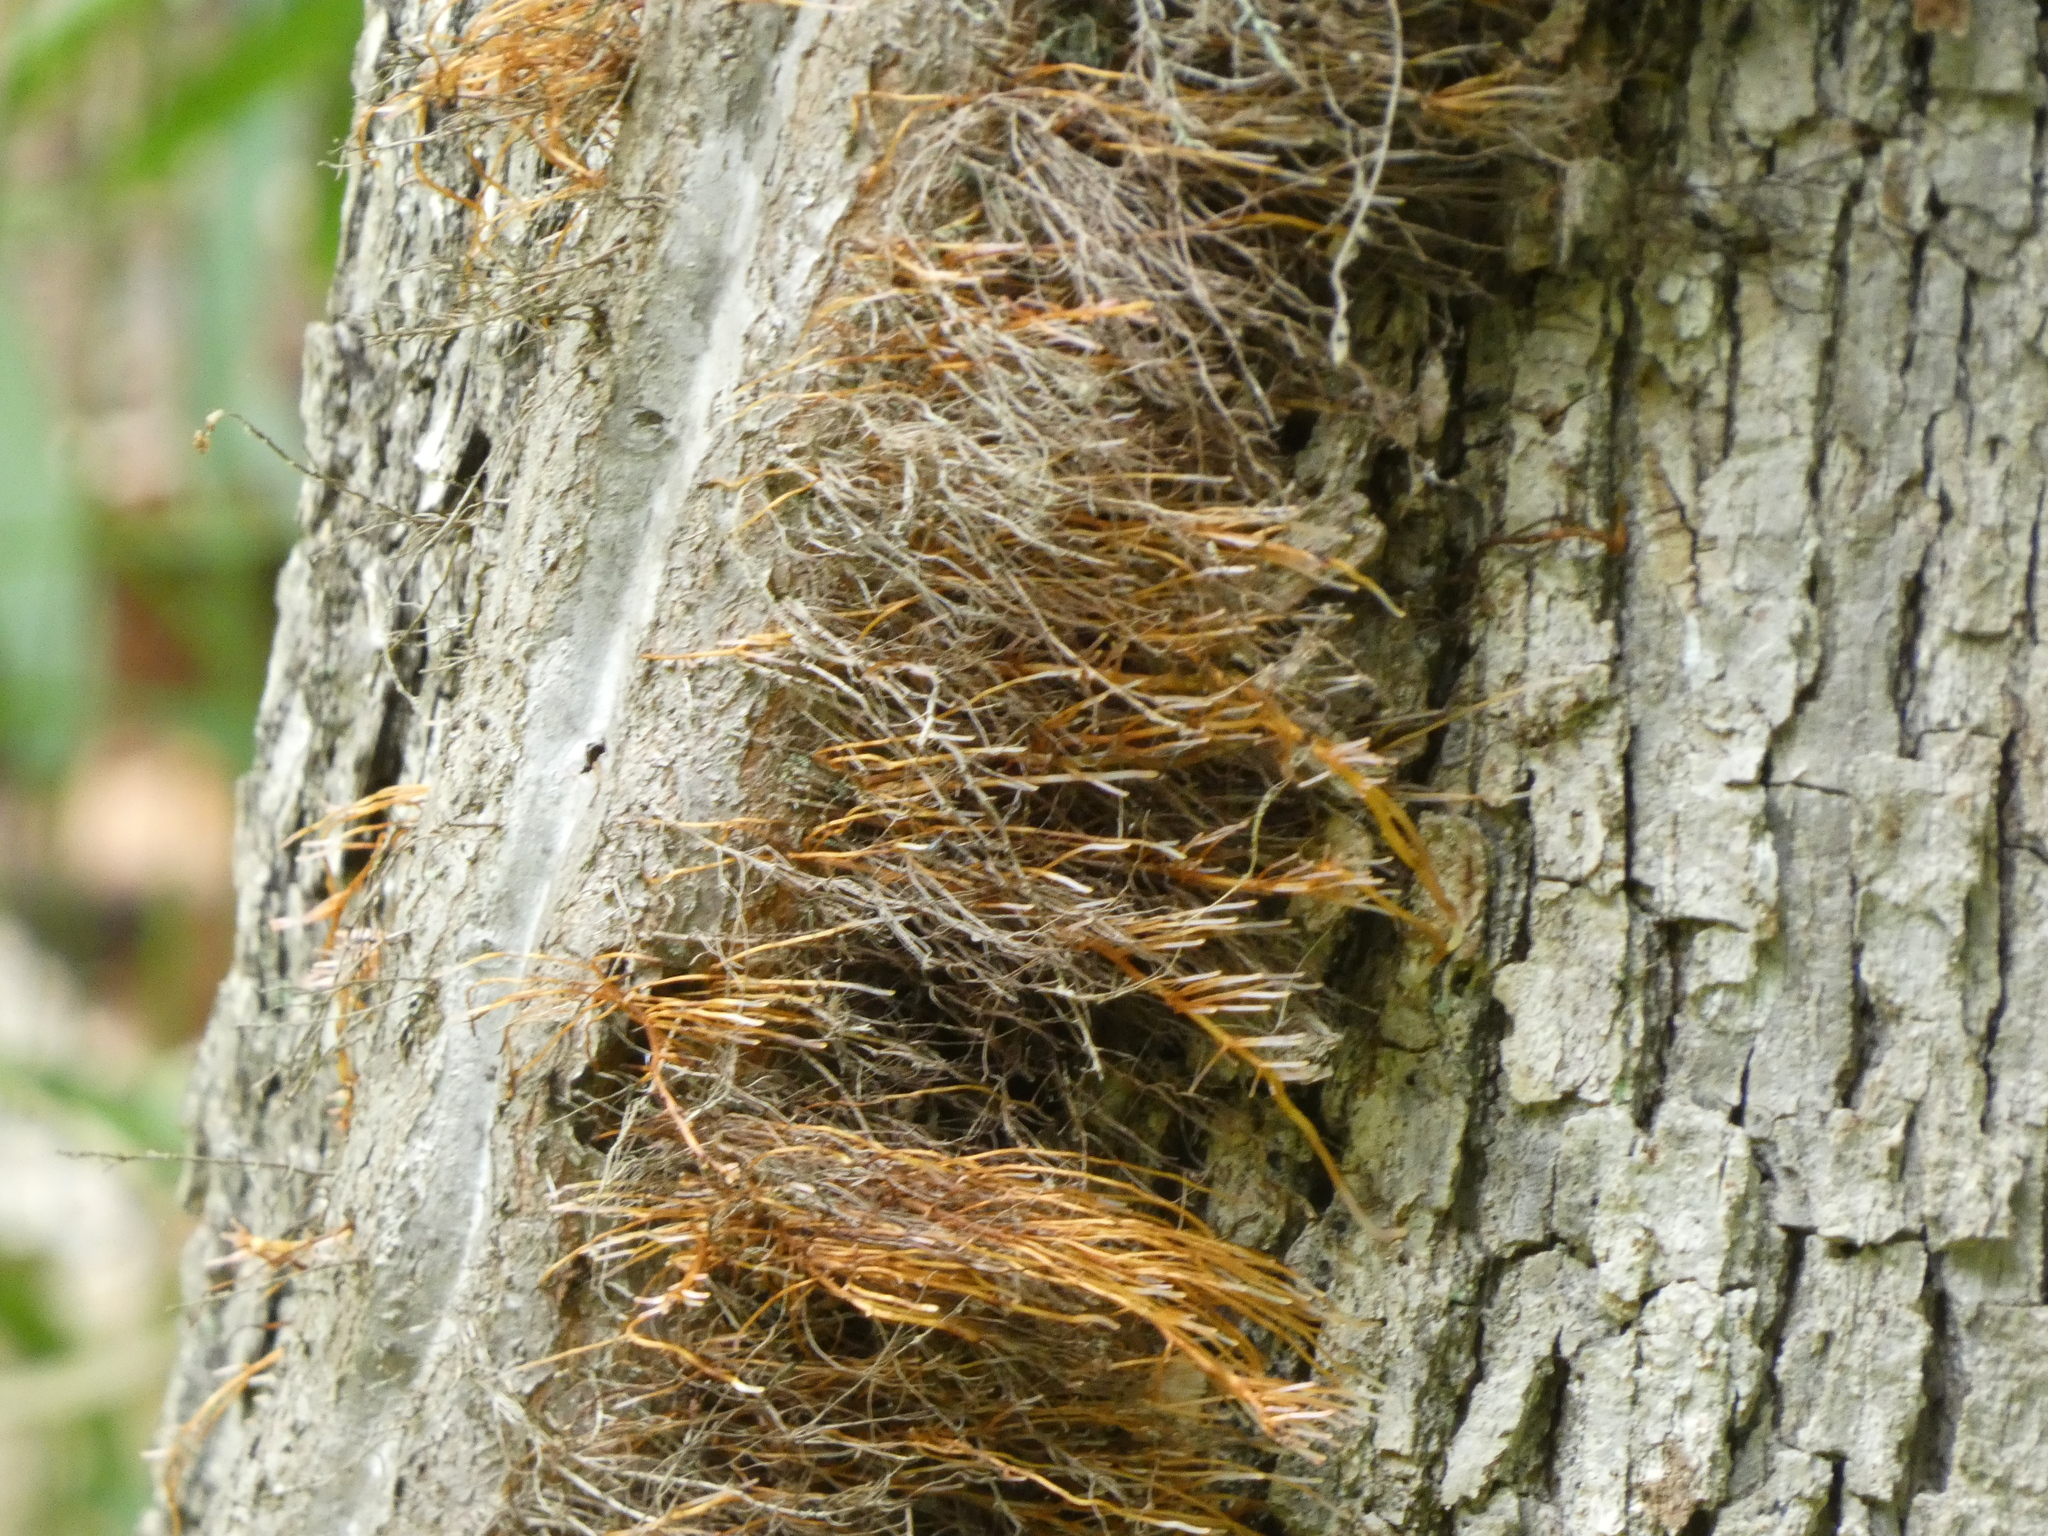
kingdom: Plantae
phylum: Tracheophyta
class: Magnoliopsida
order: Sapindales
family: Anacardiaceae
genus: Toxicodendron
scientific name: Toxicodendron radicans
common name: Poison ivy
